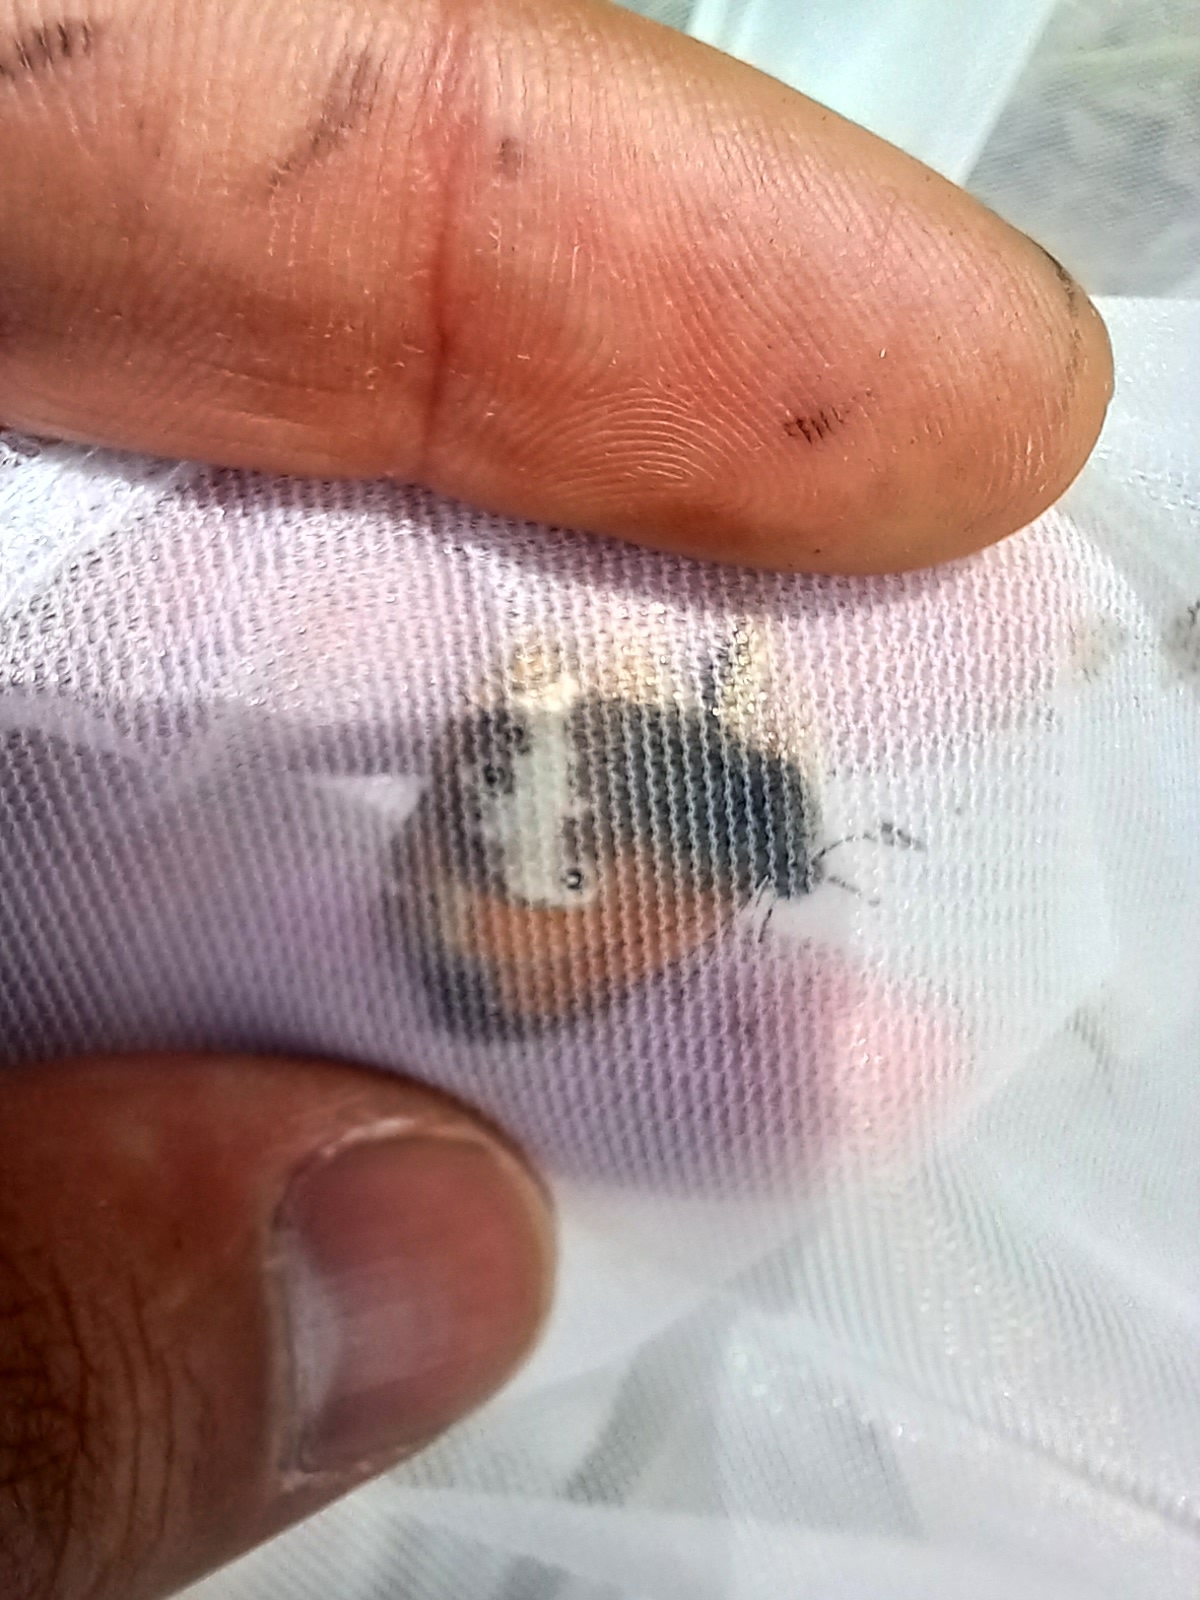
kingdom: Animalia
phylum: Arthropoda
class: Insecta
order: Lepidoptera
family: Nymphalidae
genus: Coenonympha
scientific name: Coenonympha arcania
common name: Pearly heath
